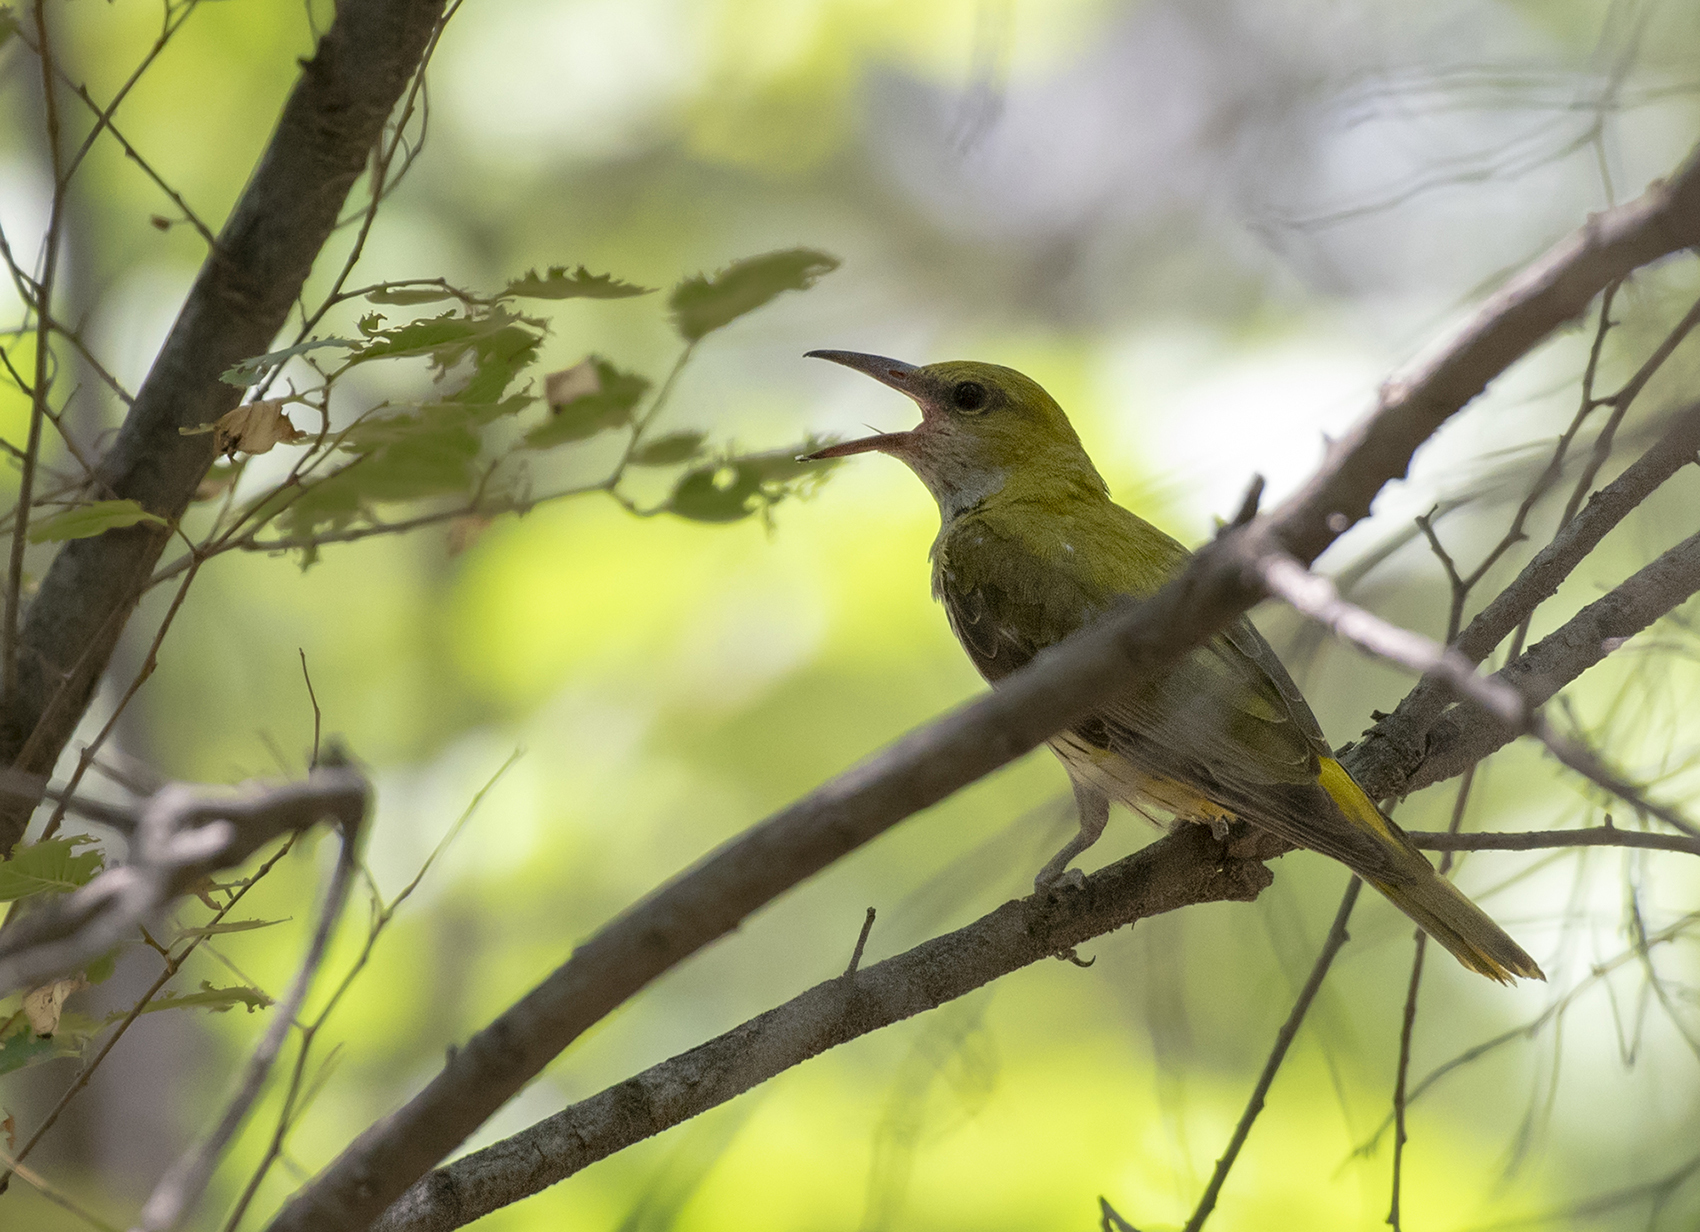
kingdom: Animalia
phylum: Chordata
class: Aves
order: Passeriformes
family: Oriolidae
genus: Oriolus
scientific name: Oriolus kundoo
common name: Indian golden oriole
